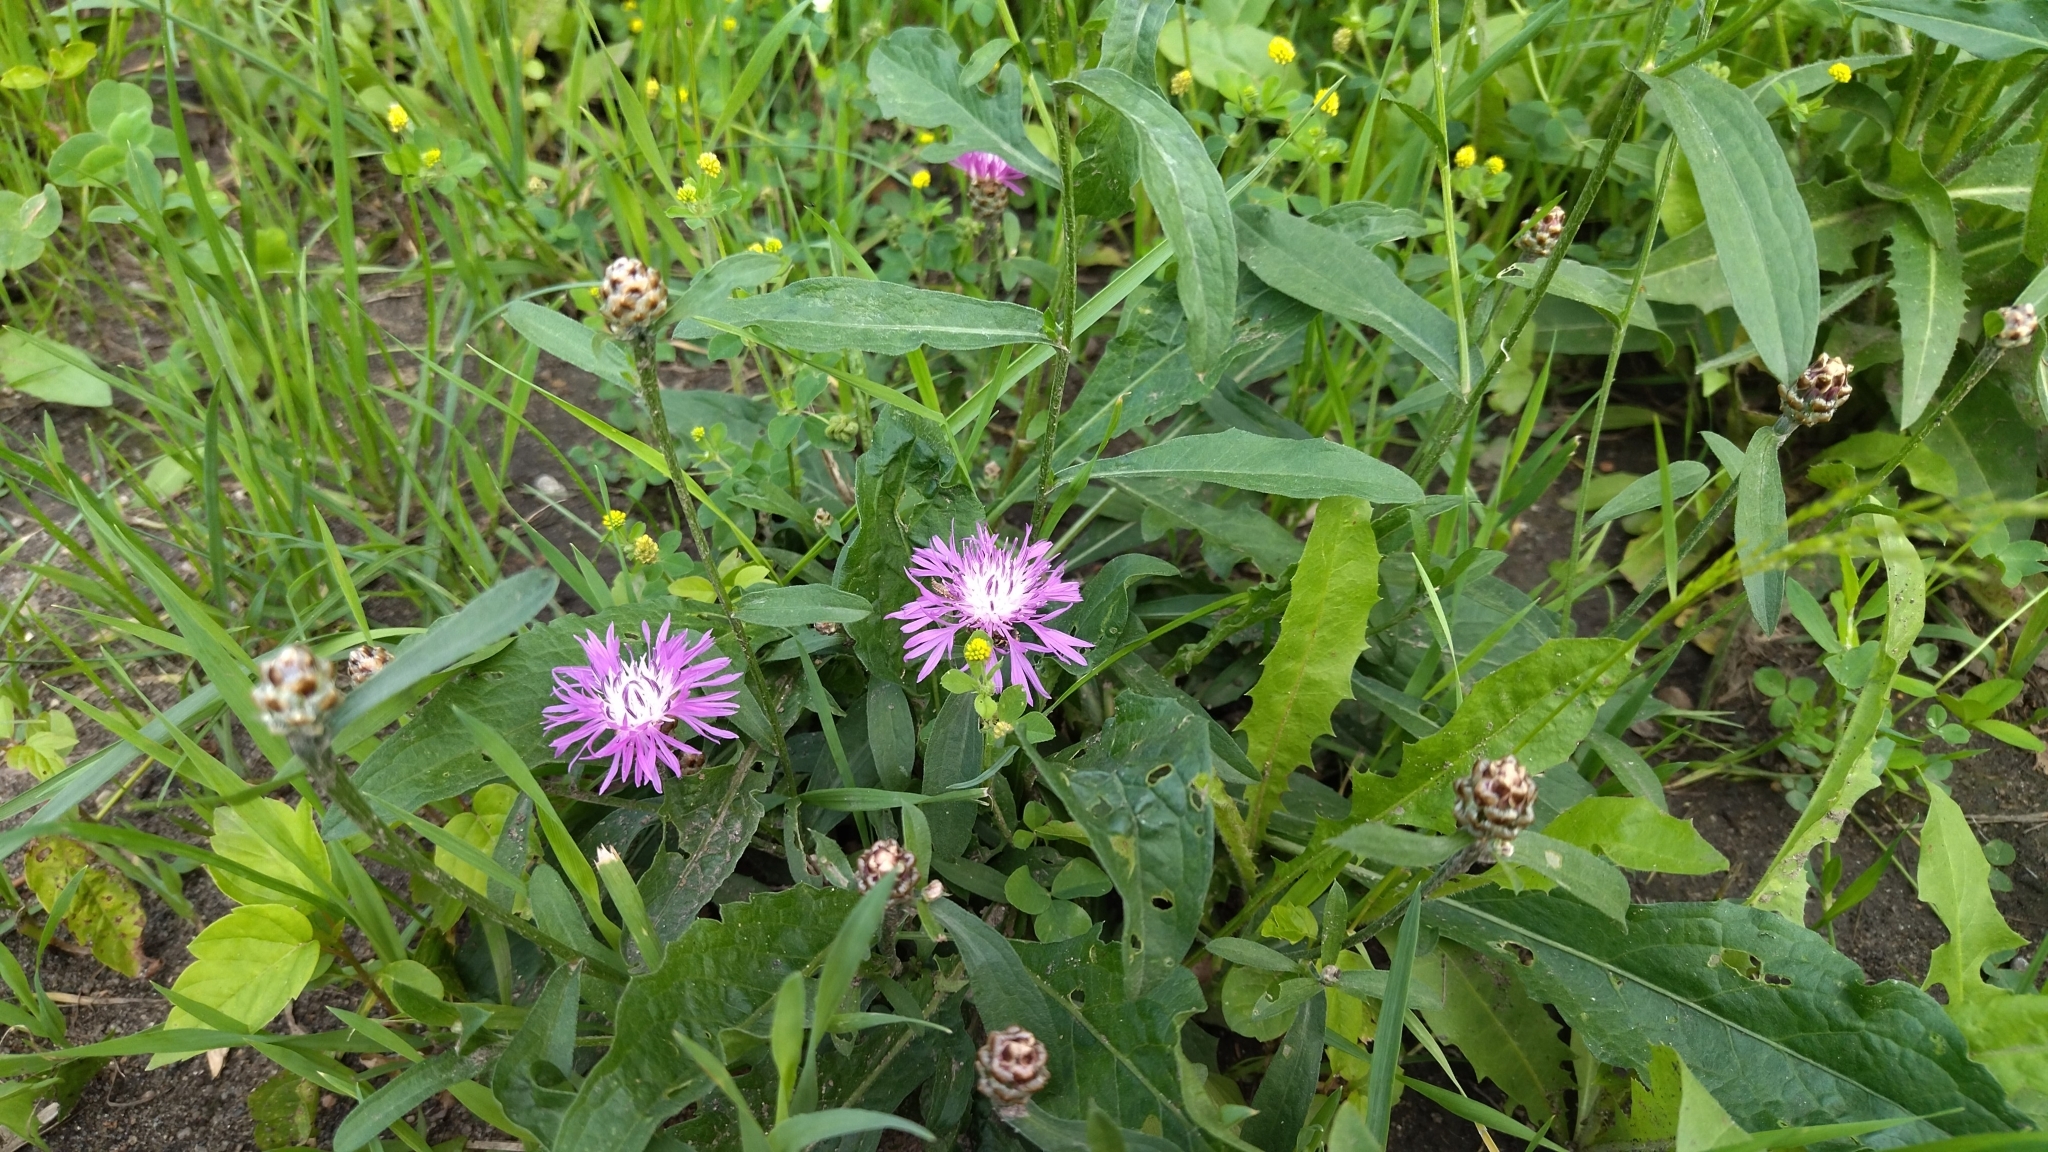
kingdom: Plantae
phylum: Tracheophyta
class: Magnoliopsida
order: Asterales
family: Asteraceae
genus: Centaurea
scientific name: Centaurea jacea
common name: Brown knapweed
